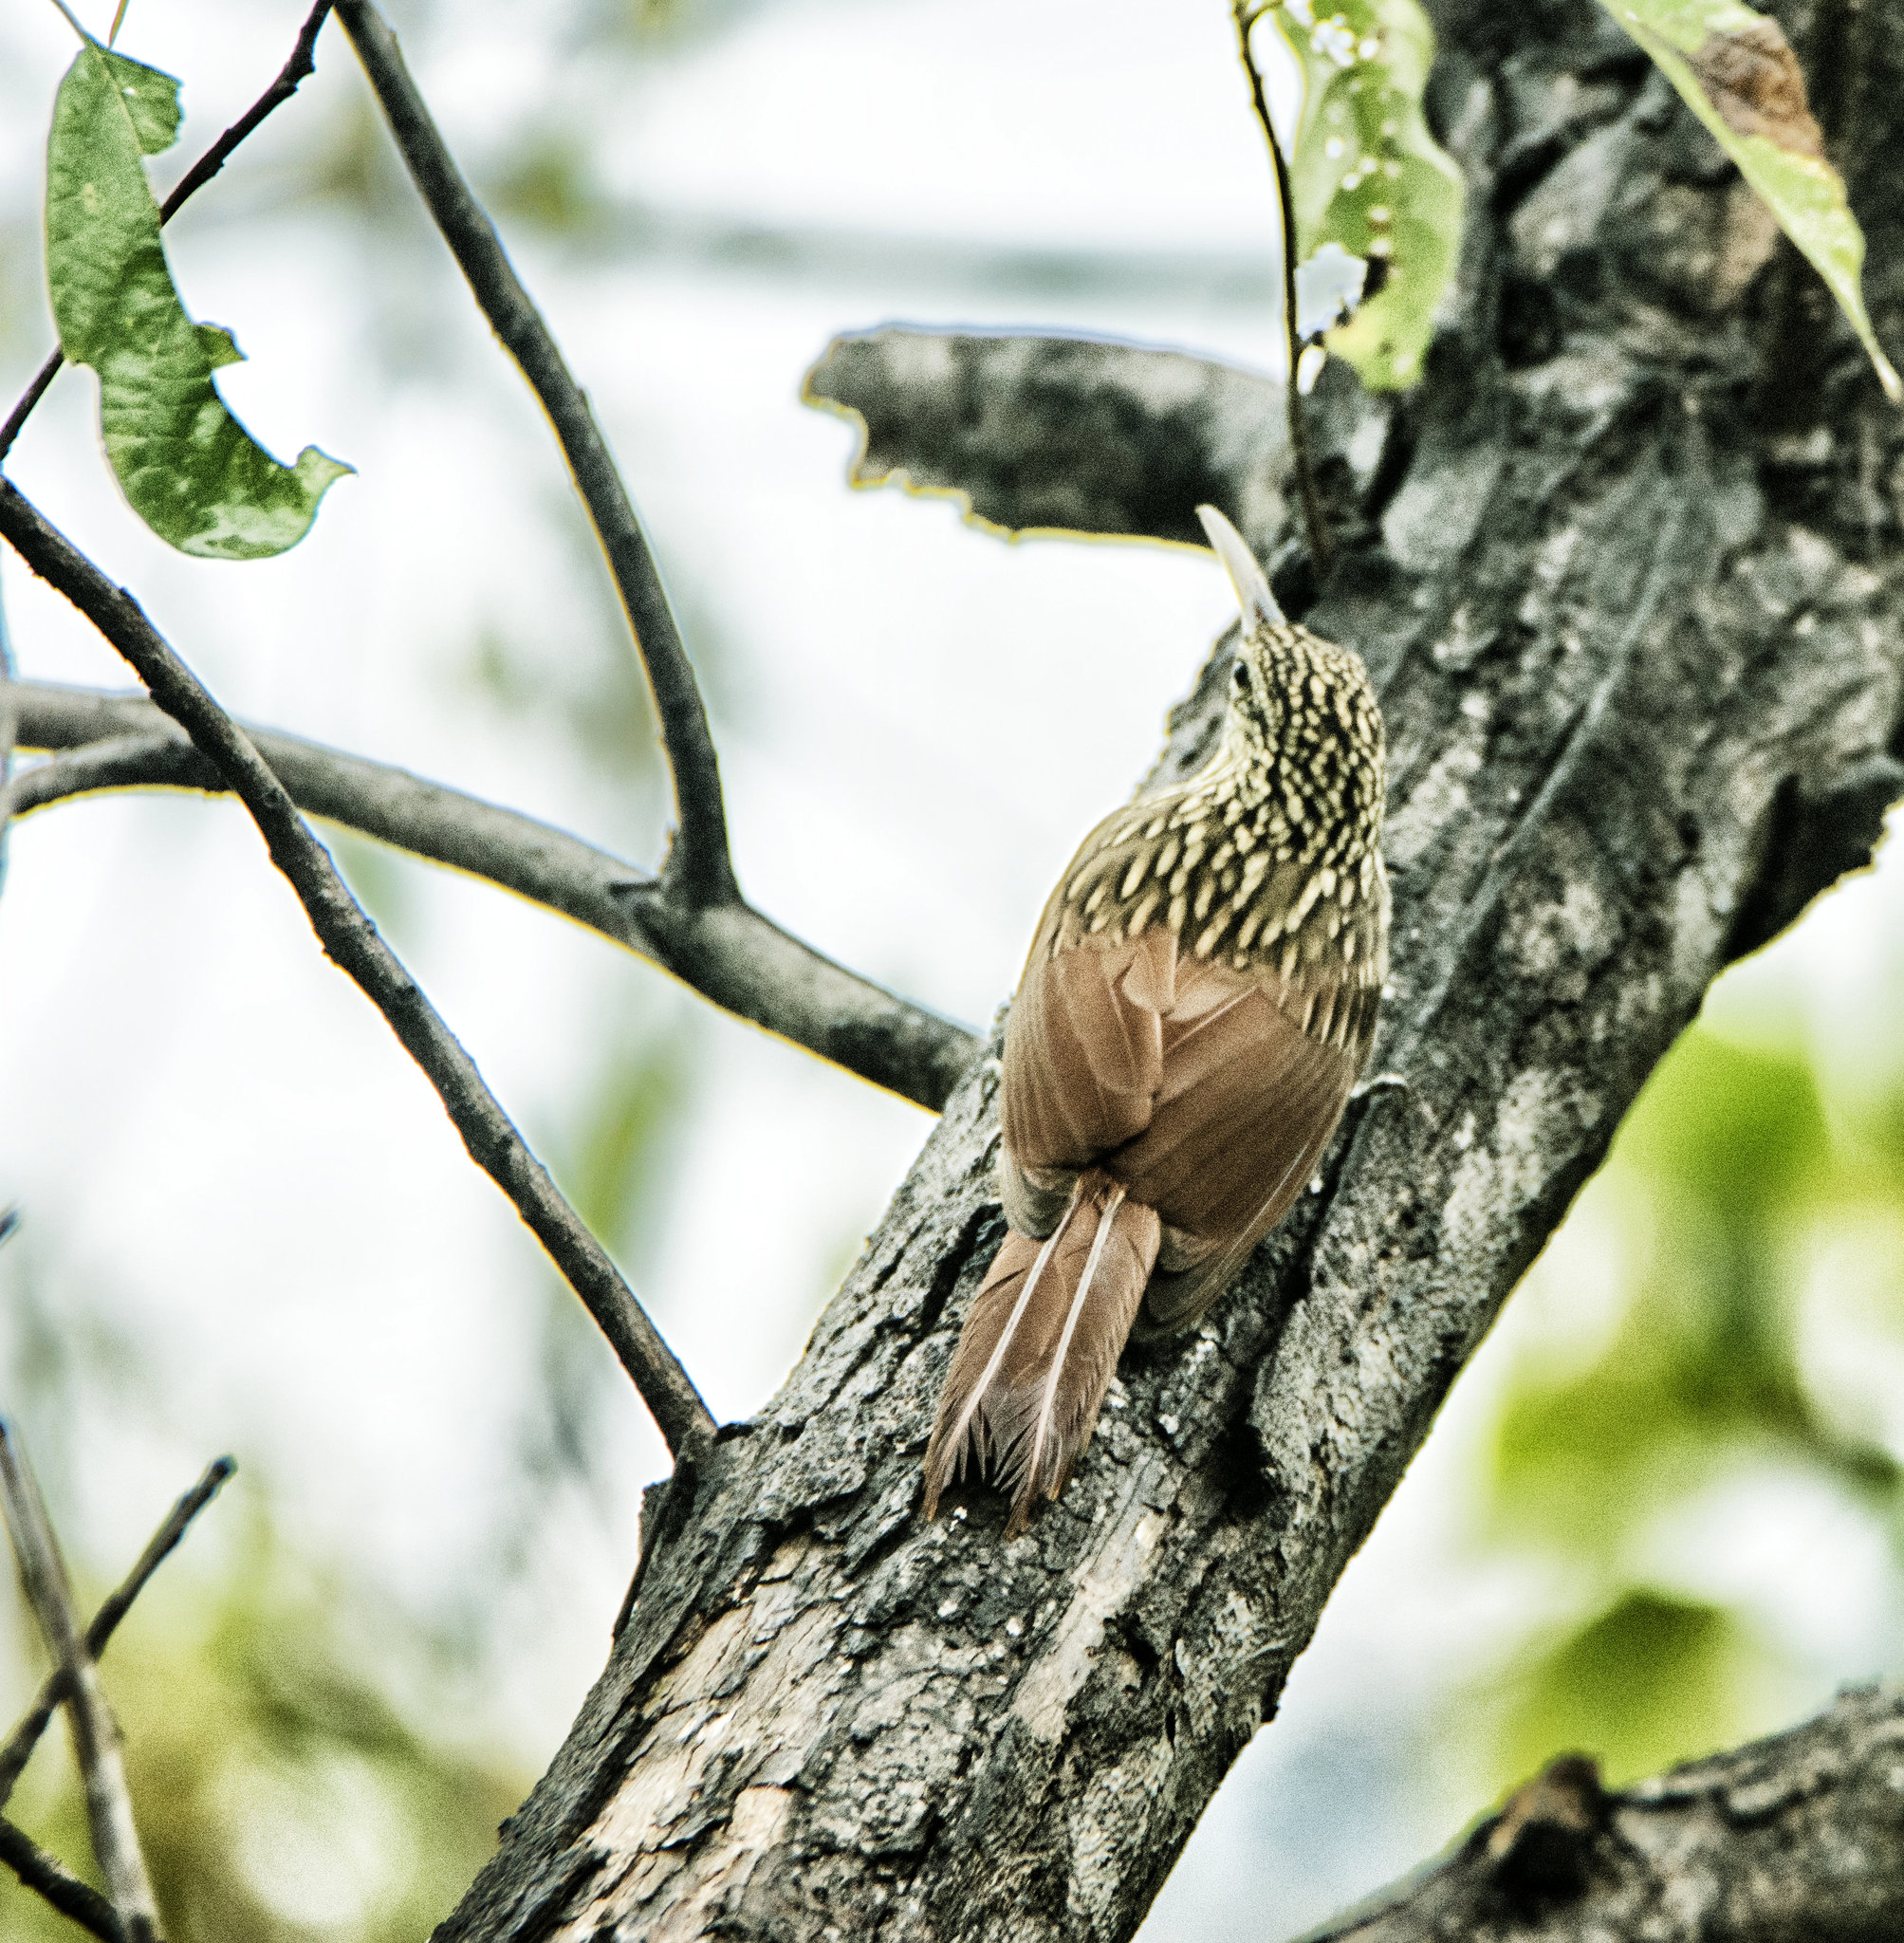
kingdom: Animalia
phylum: Chordata
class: Aves
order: Passeriformes
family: Furnariidae
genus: Xiphorhynchus
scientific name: Xiphorhynchus flavigaster
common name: Ivory-billed woodcreeper
